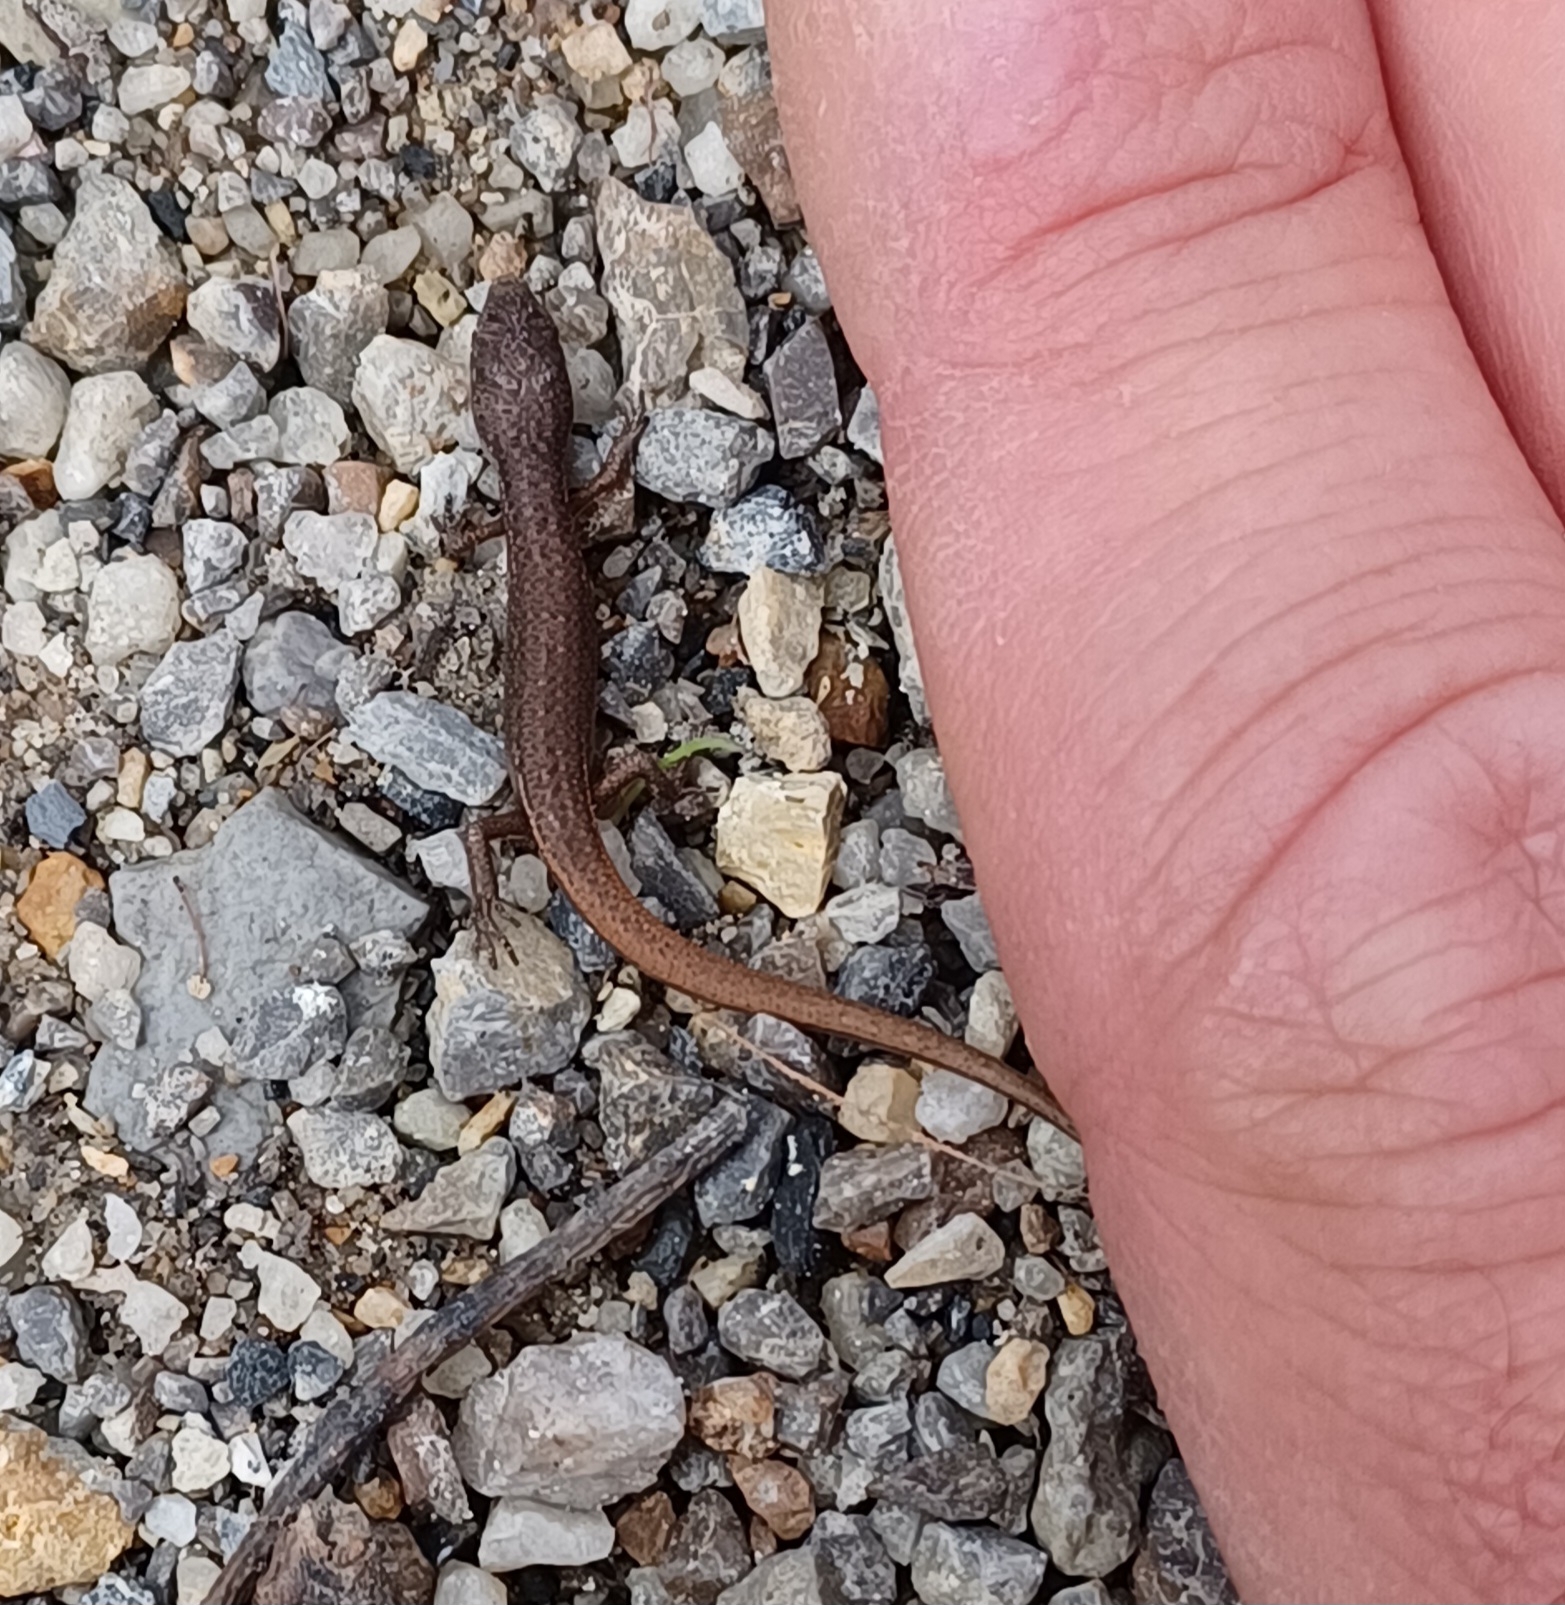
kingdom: Animalia
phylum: Chordata
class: Squamata
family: Scincidae
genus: Saproscincus
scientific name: Saproscincus mustelinus
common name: Southern weasel skink
